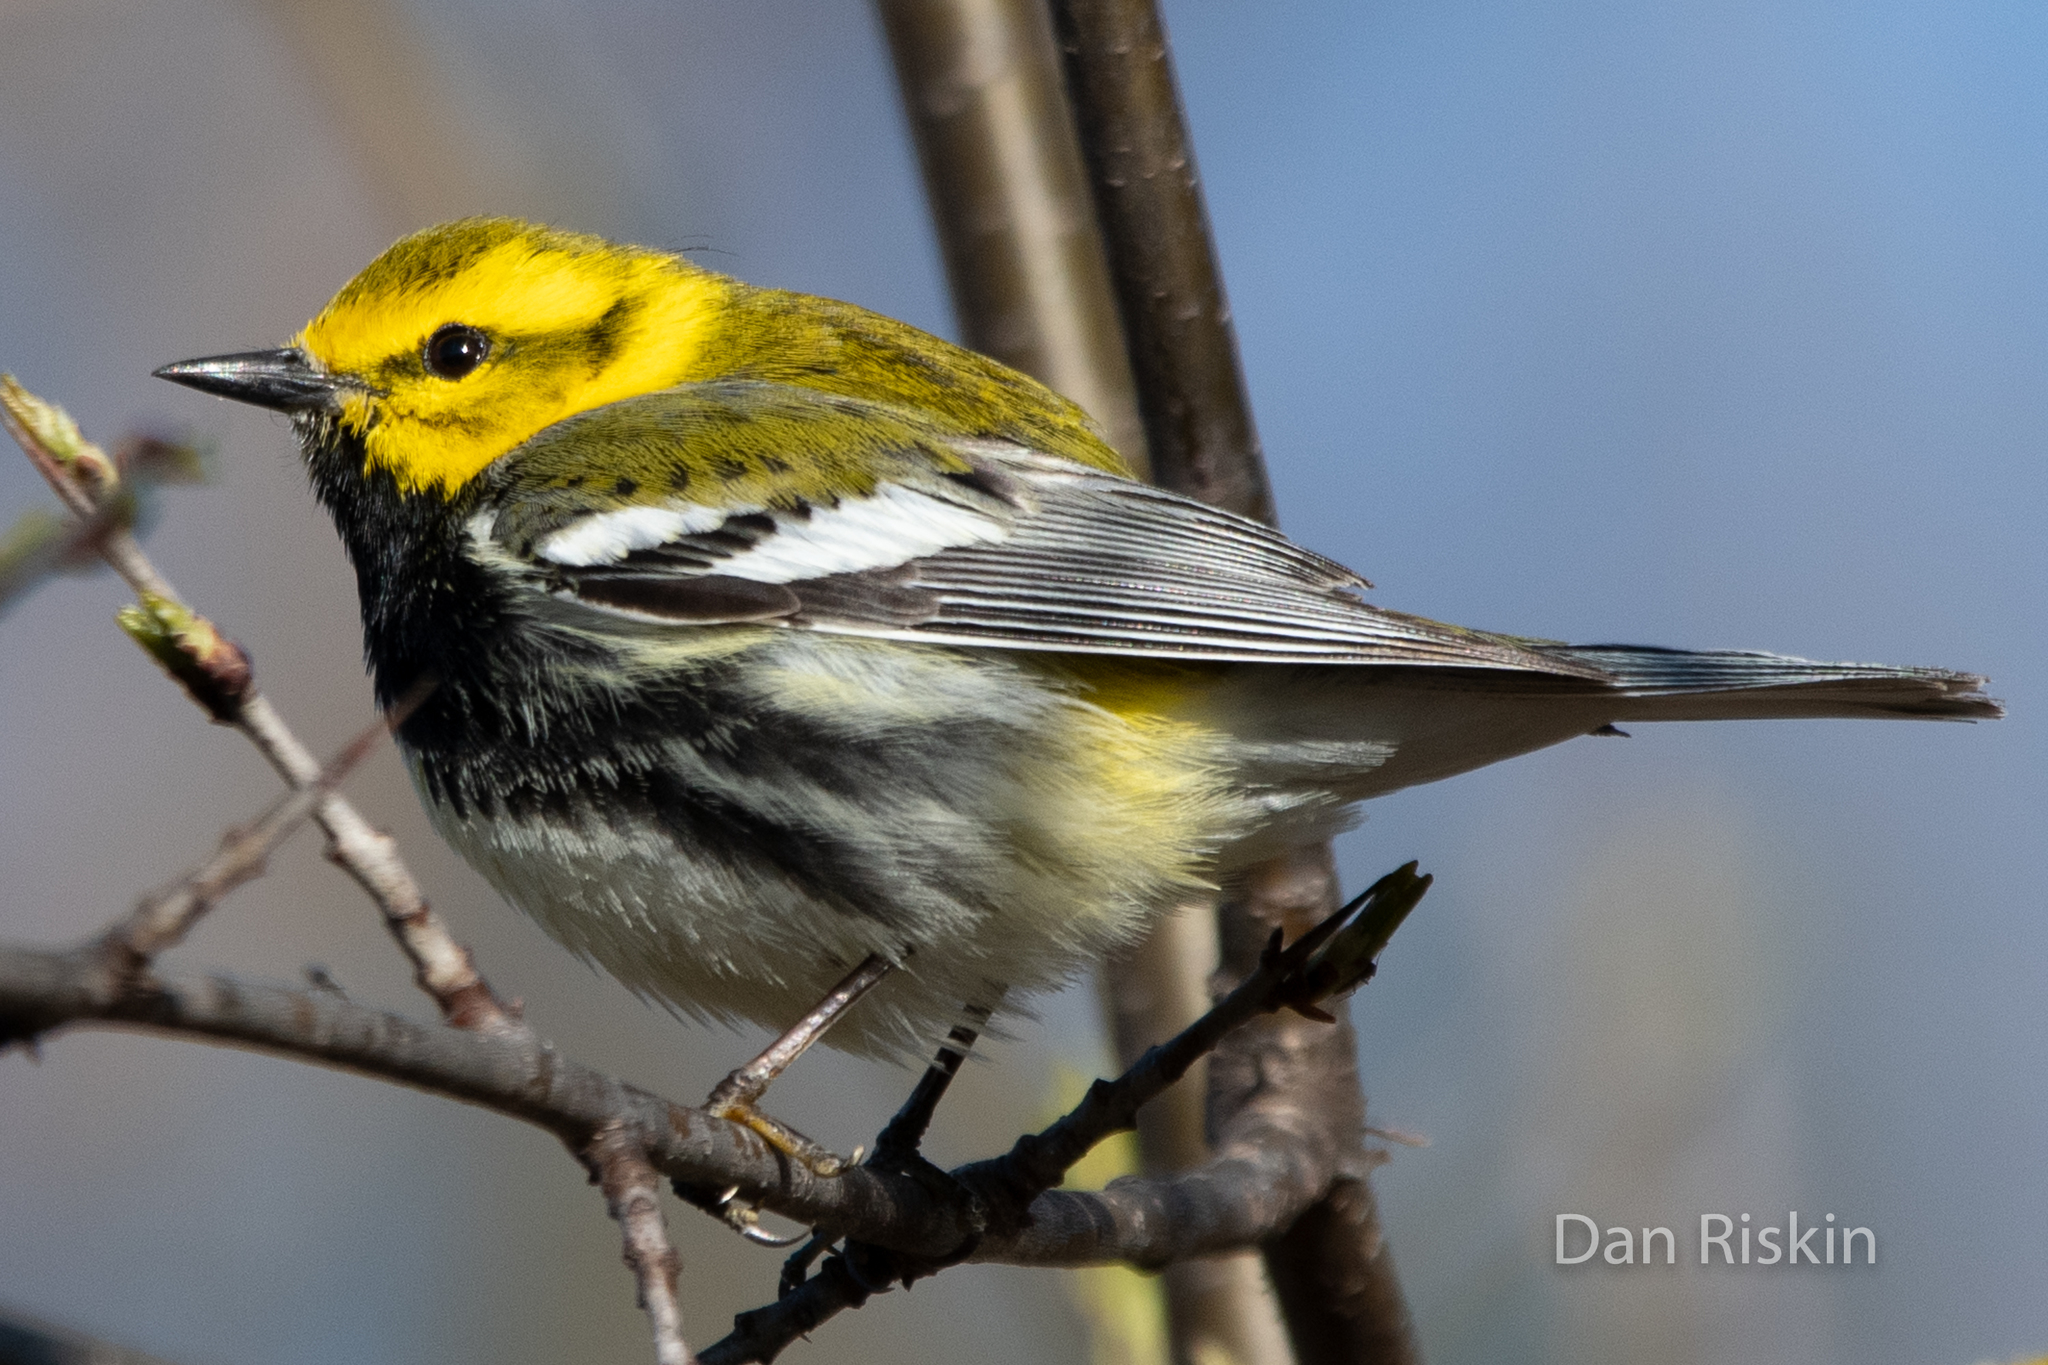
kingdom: Animalia
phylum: Chordata
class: Aves
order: Passeriformes
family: Parulidae
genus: Setophaga
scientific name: Setophaga virens
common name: Black-throated green warbler
